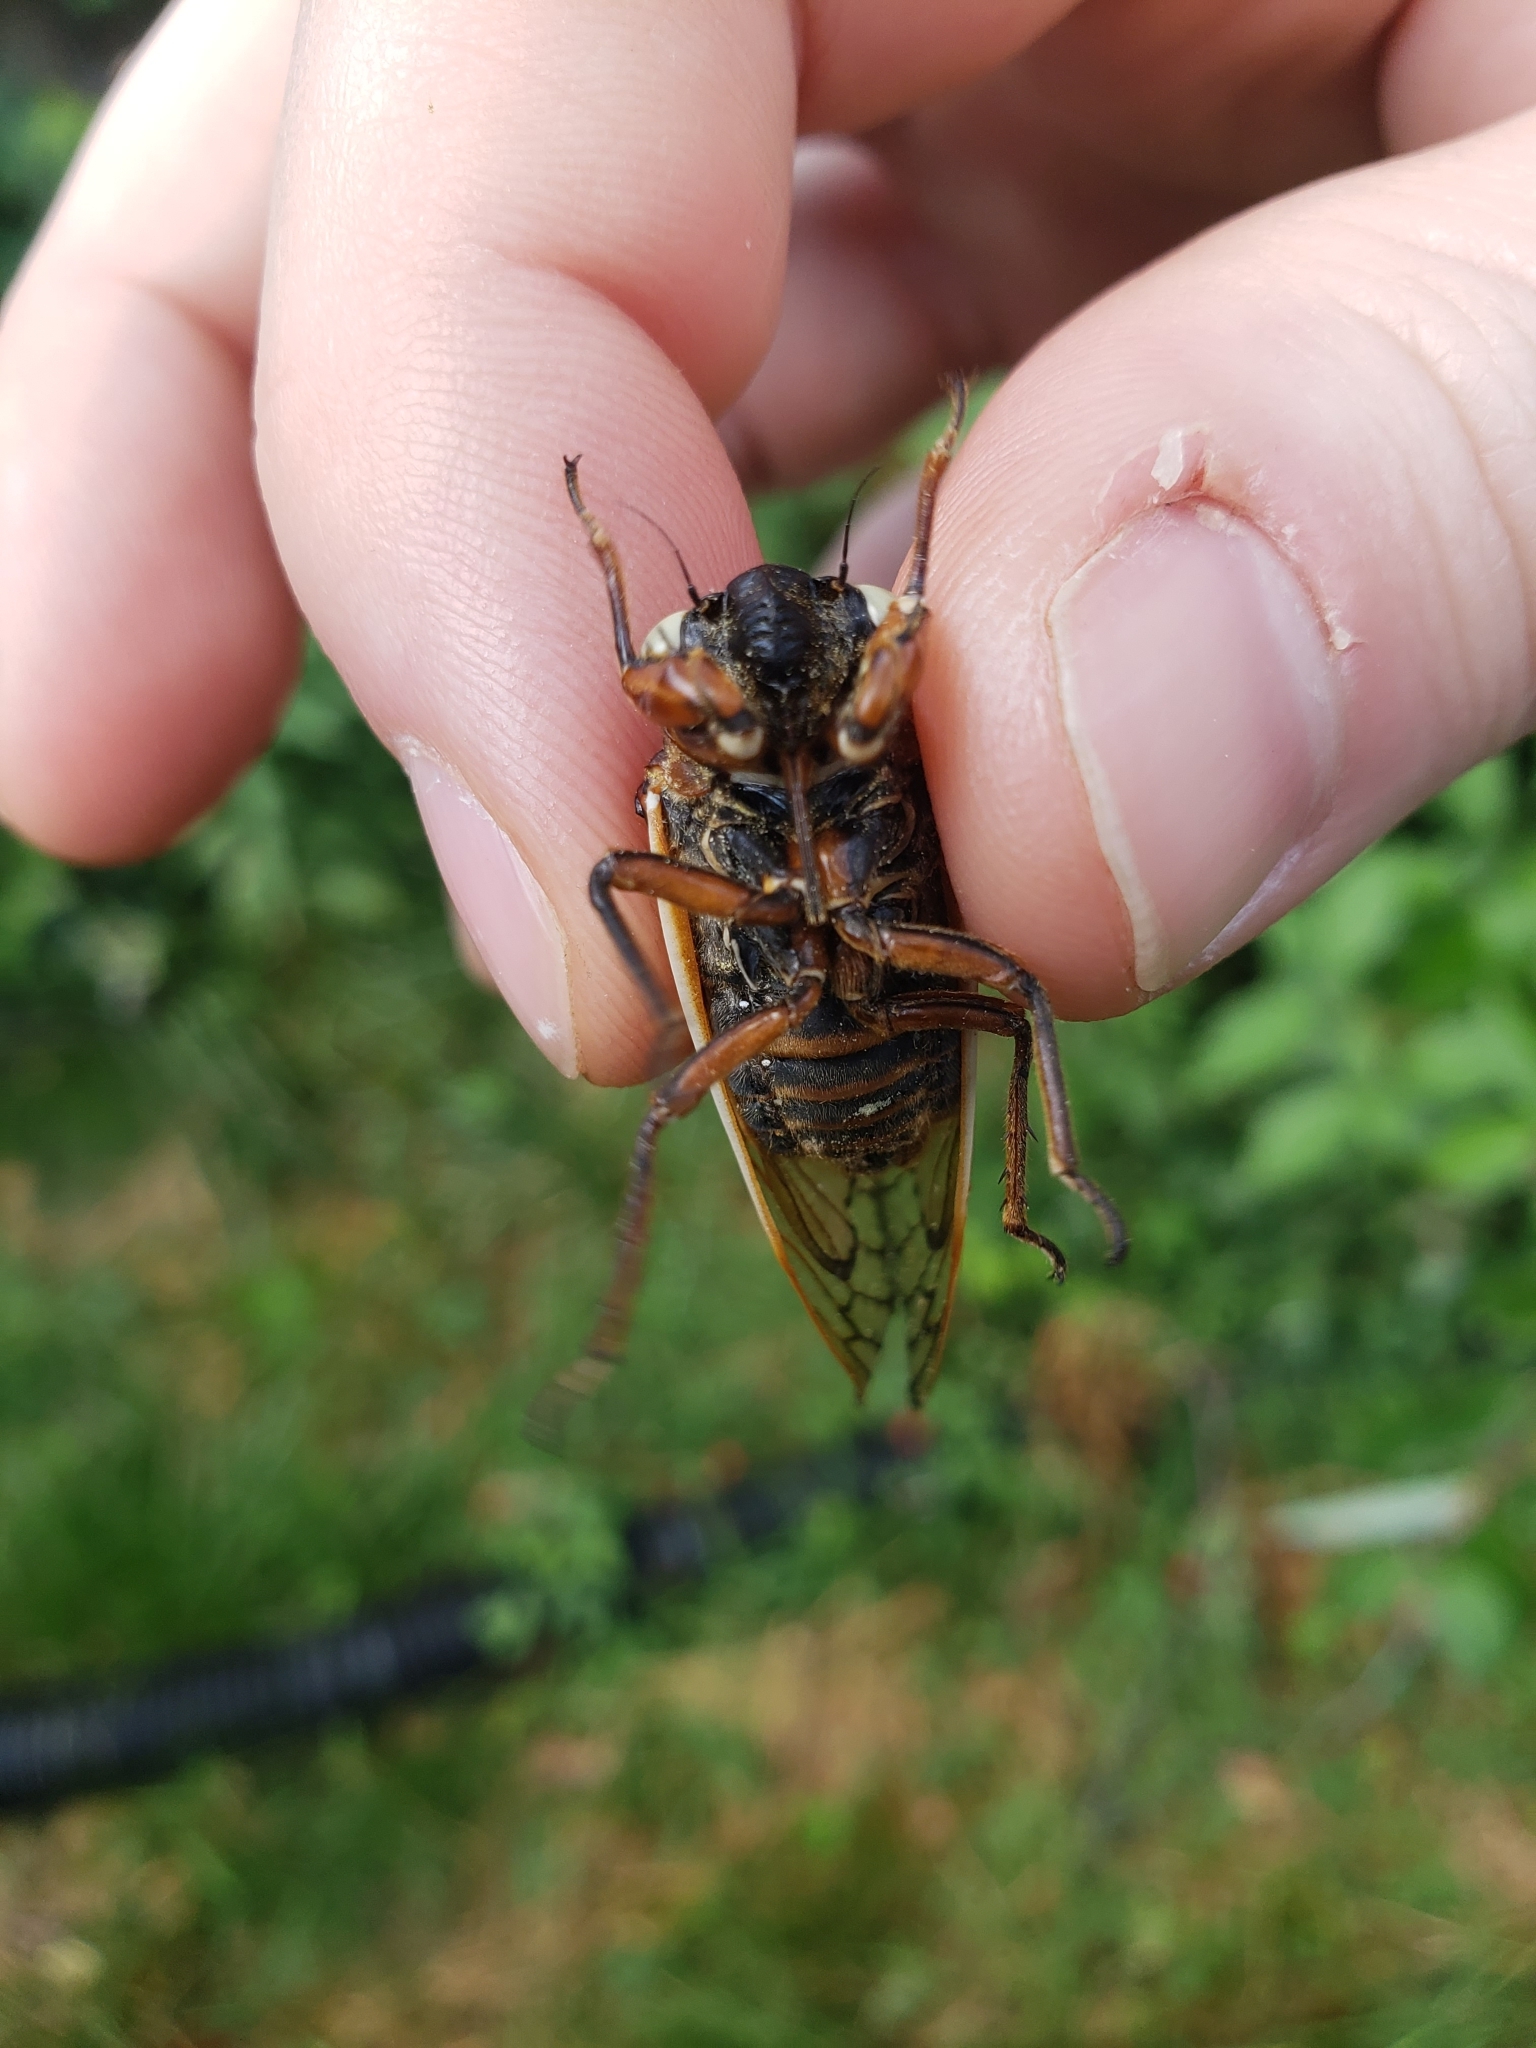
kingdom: Animalia
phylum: Arthropoda
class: Insecta
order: Hemiptera
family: Cicadidae
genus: Magicicada
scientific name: Magicicada septendecim
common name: Periodical cicada
